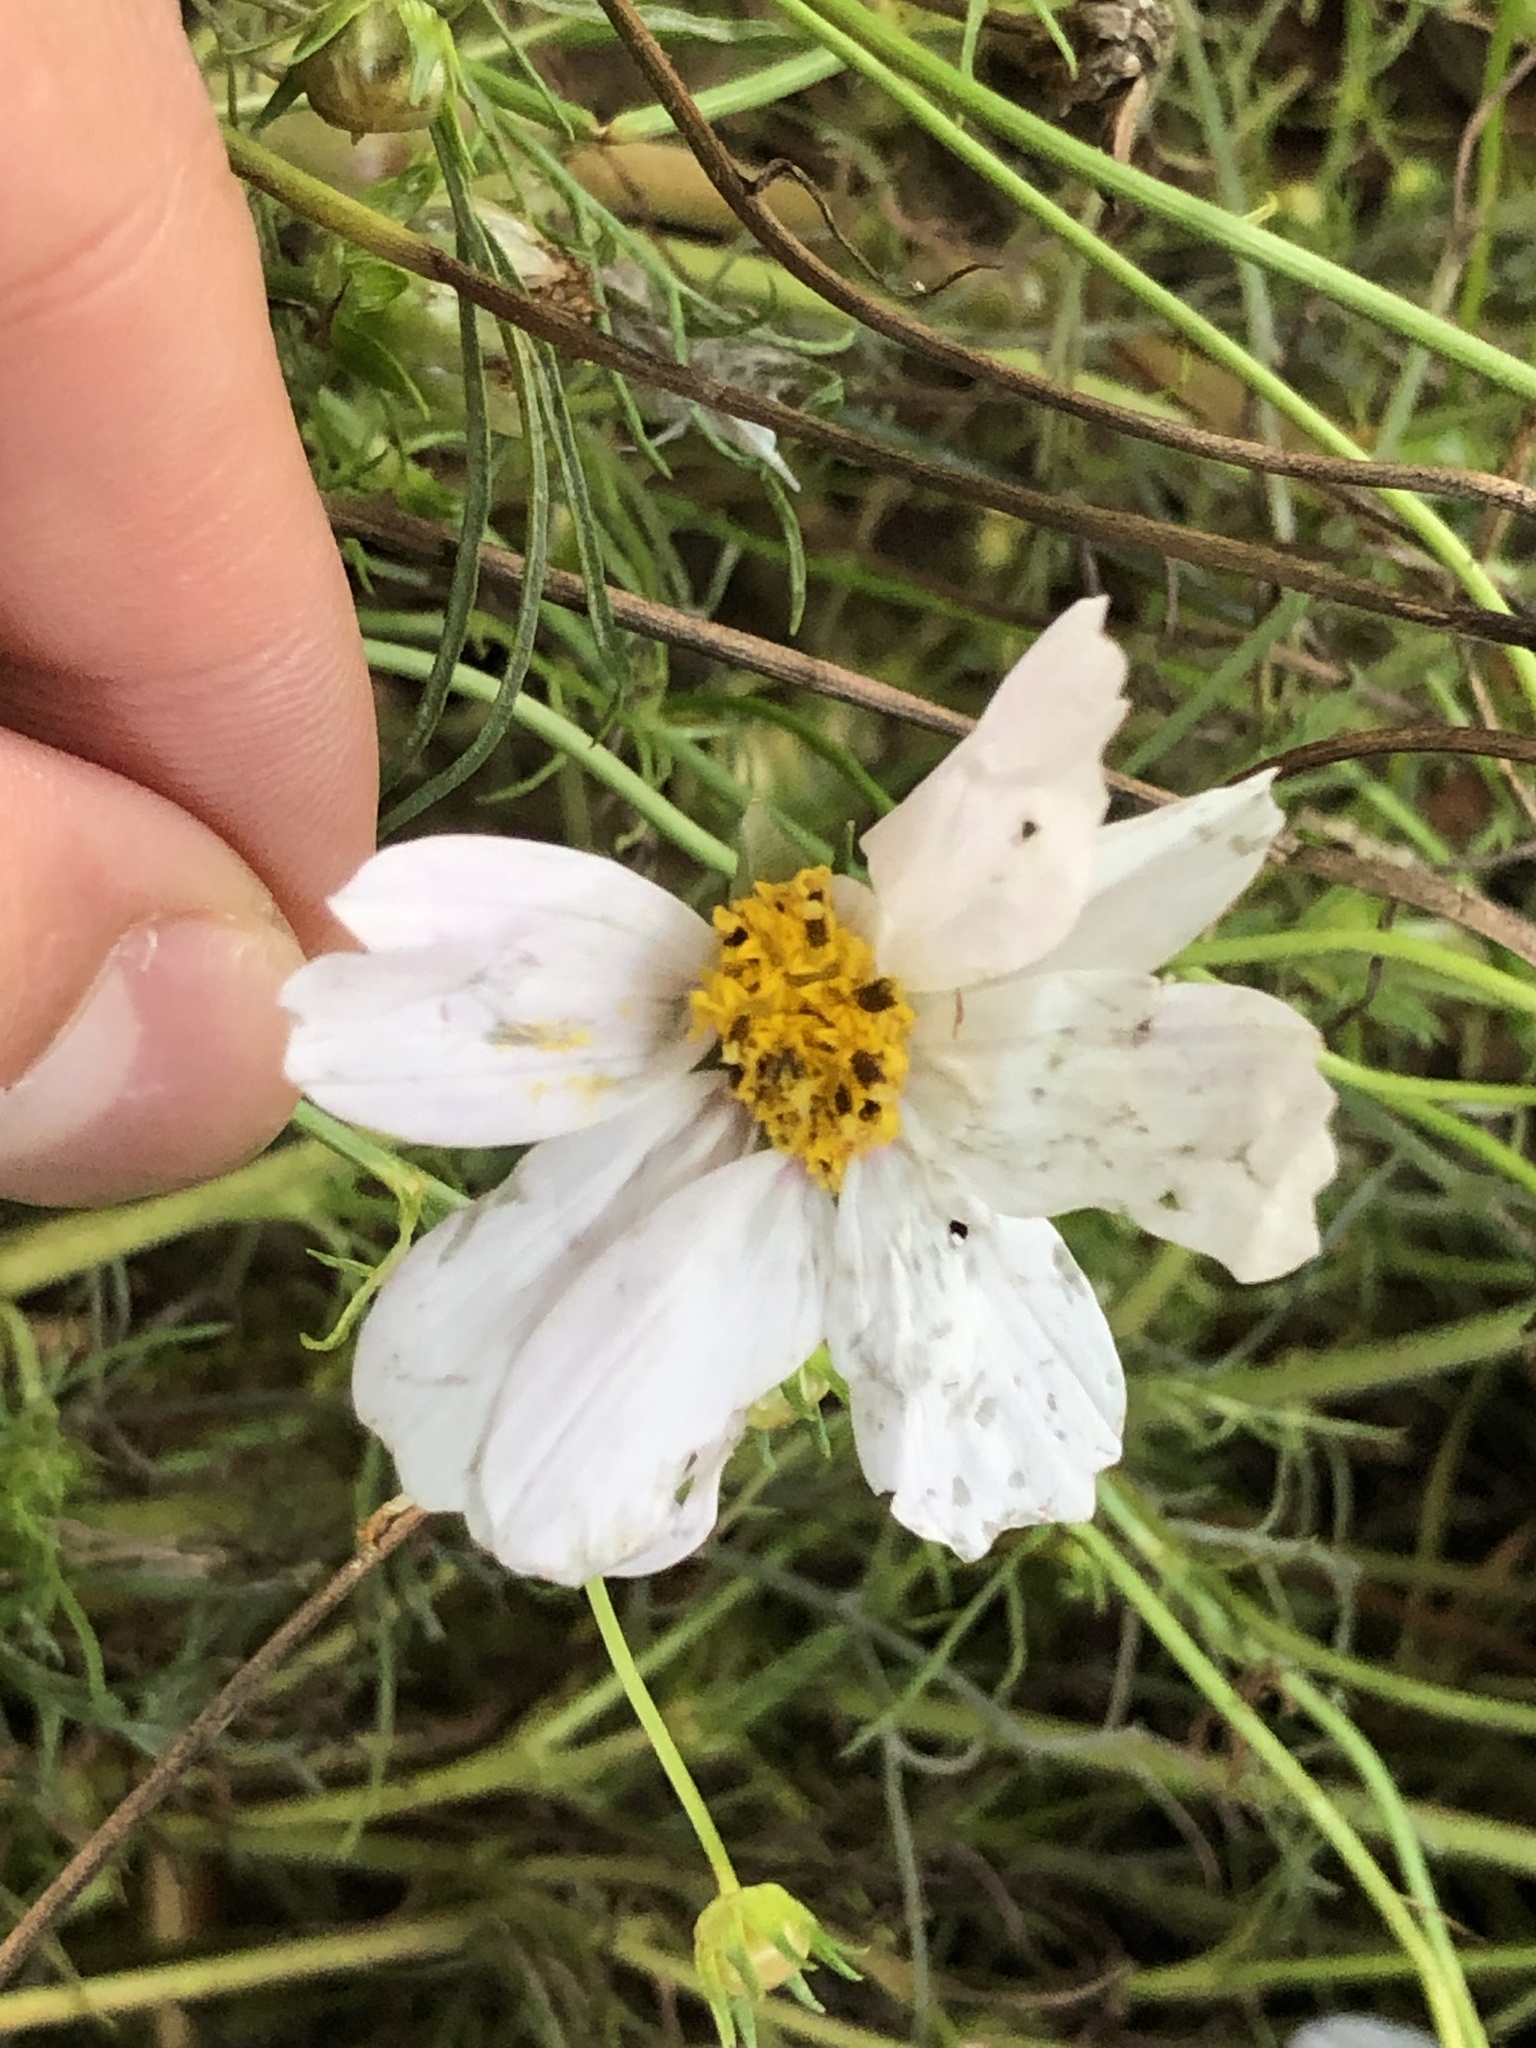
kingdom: Plantae
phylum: Tracheophyta
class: Magnoliopsida
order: Asterales
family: Asteraceae
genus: Cosmos
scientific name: Cosmos bipinnatus
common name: Garden cosmos
